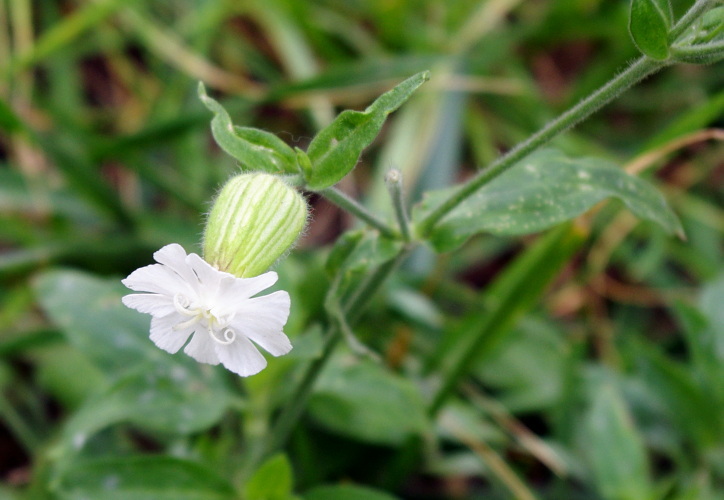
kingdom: Plantae
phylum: Tracheophyta
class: Magnoliopsida
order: Caryophyllales
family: Caryophyllaceae
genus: Silene
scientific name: Silene latifolia
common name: White campion
